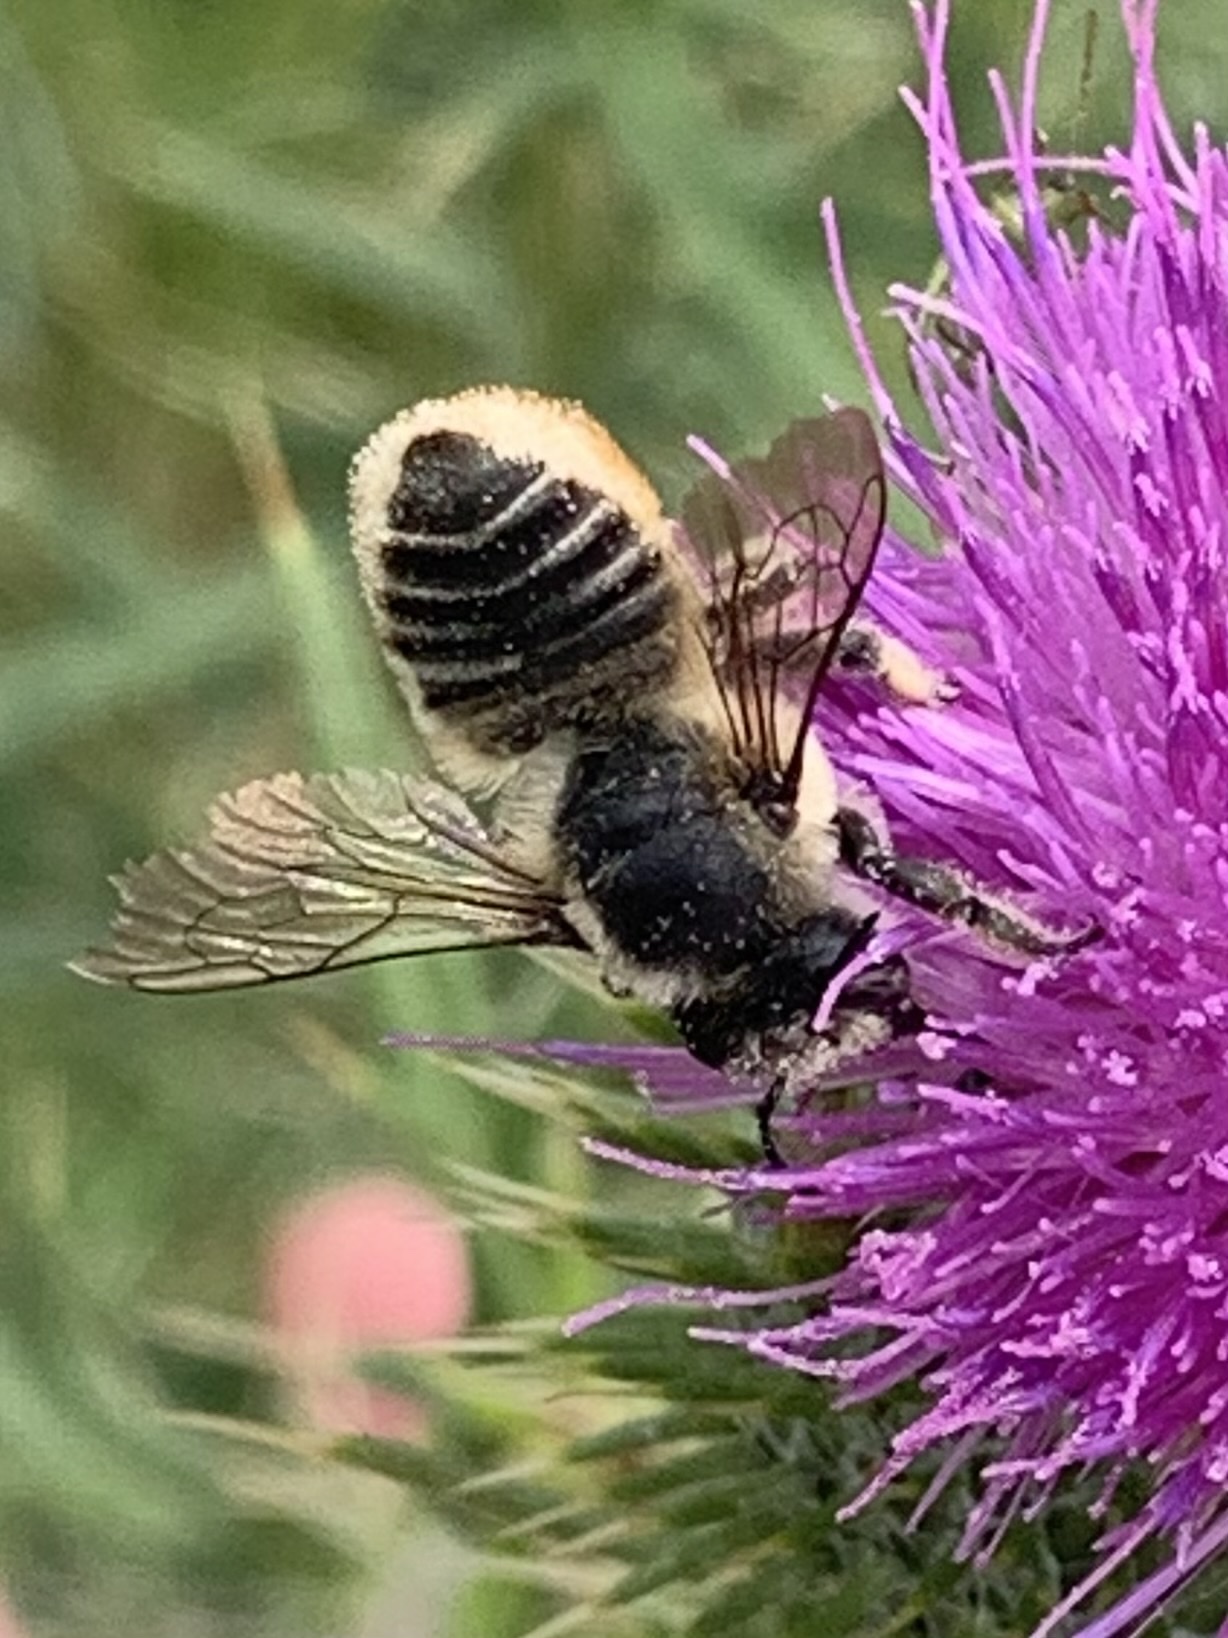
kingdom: Animalia
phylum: Arthropoda
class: Insecta
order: Hymenoptera
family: Megachilidae
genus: Megachile
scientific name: Megachile latimanus
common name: Leafcutting bee
